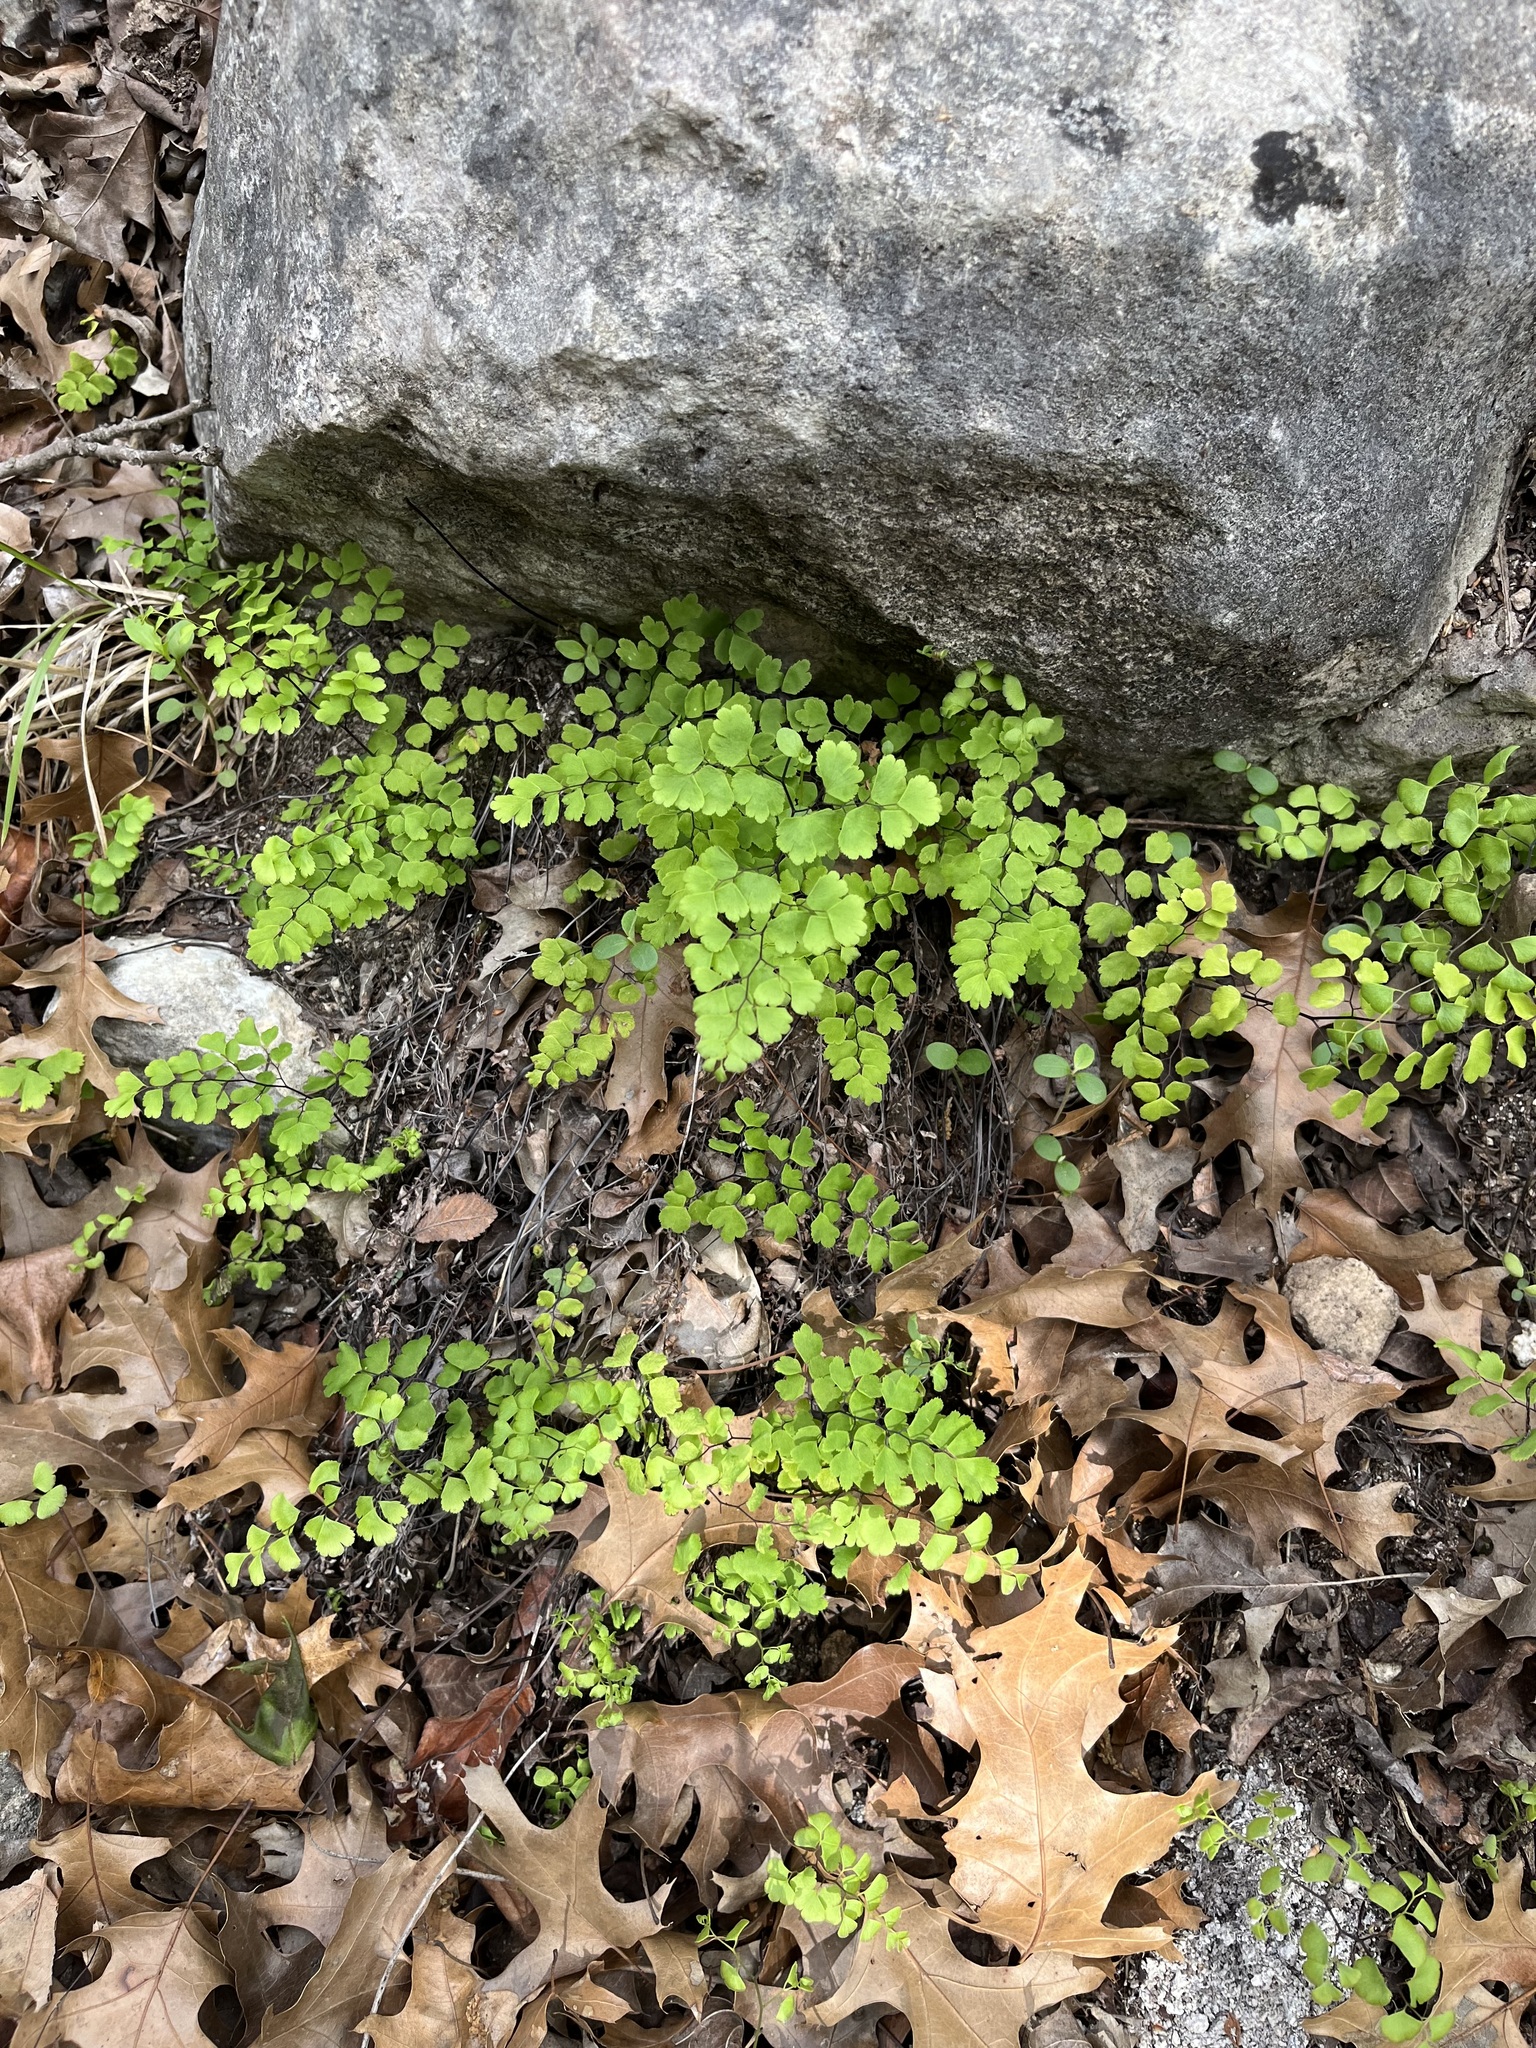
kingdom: Plantae
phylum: Tracheophyta
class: Polypodiopsida
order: Polypodiales
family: Pteridaceae
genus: Adiantum
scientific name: Adiantum capillus-veneris
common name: Maidenhair fern
